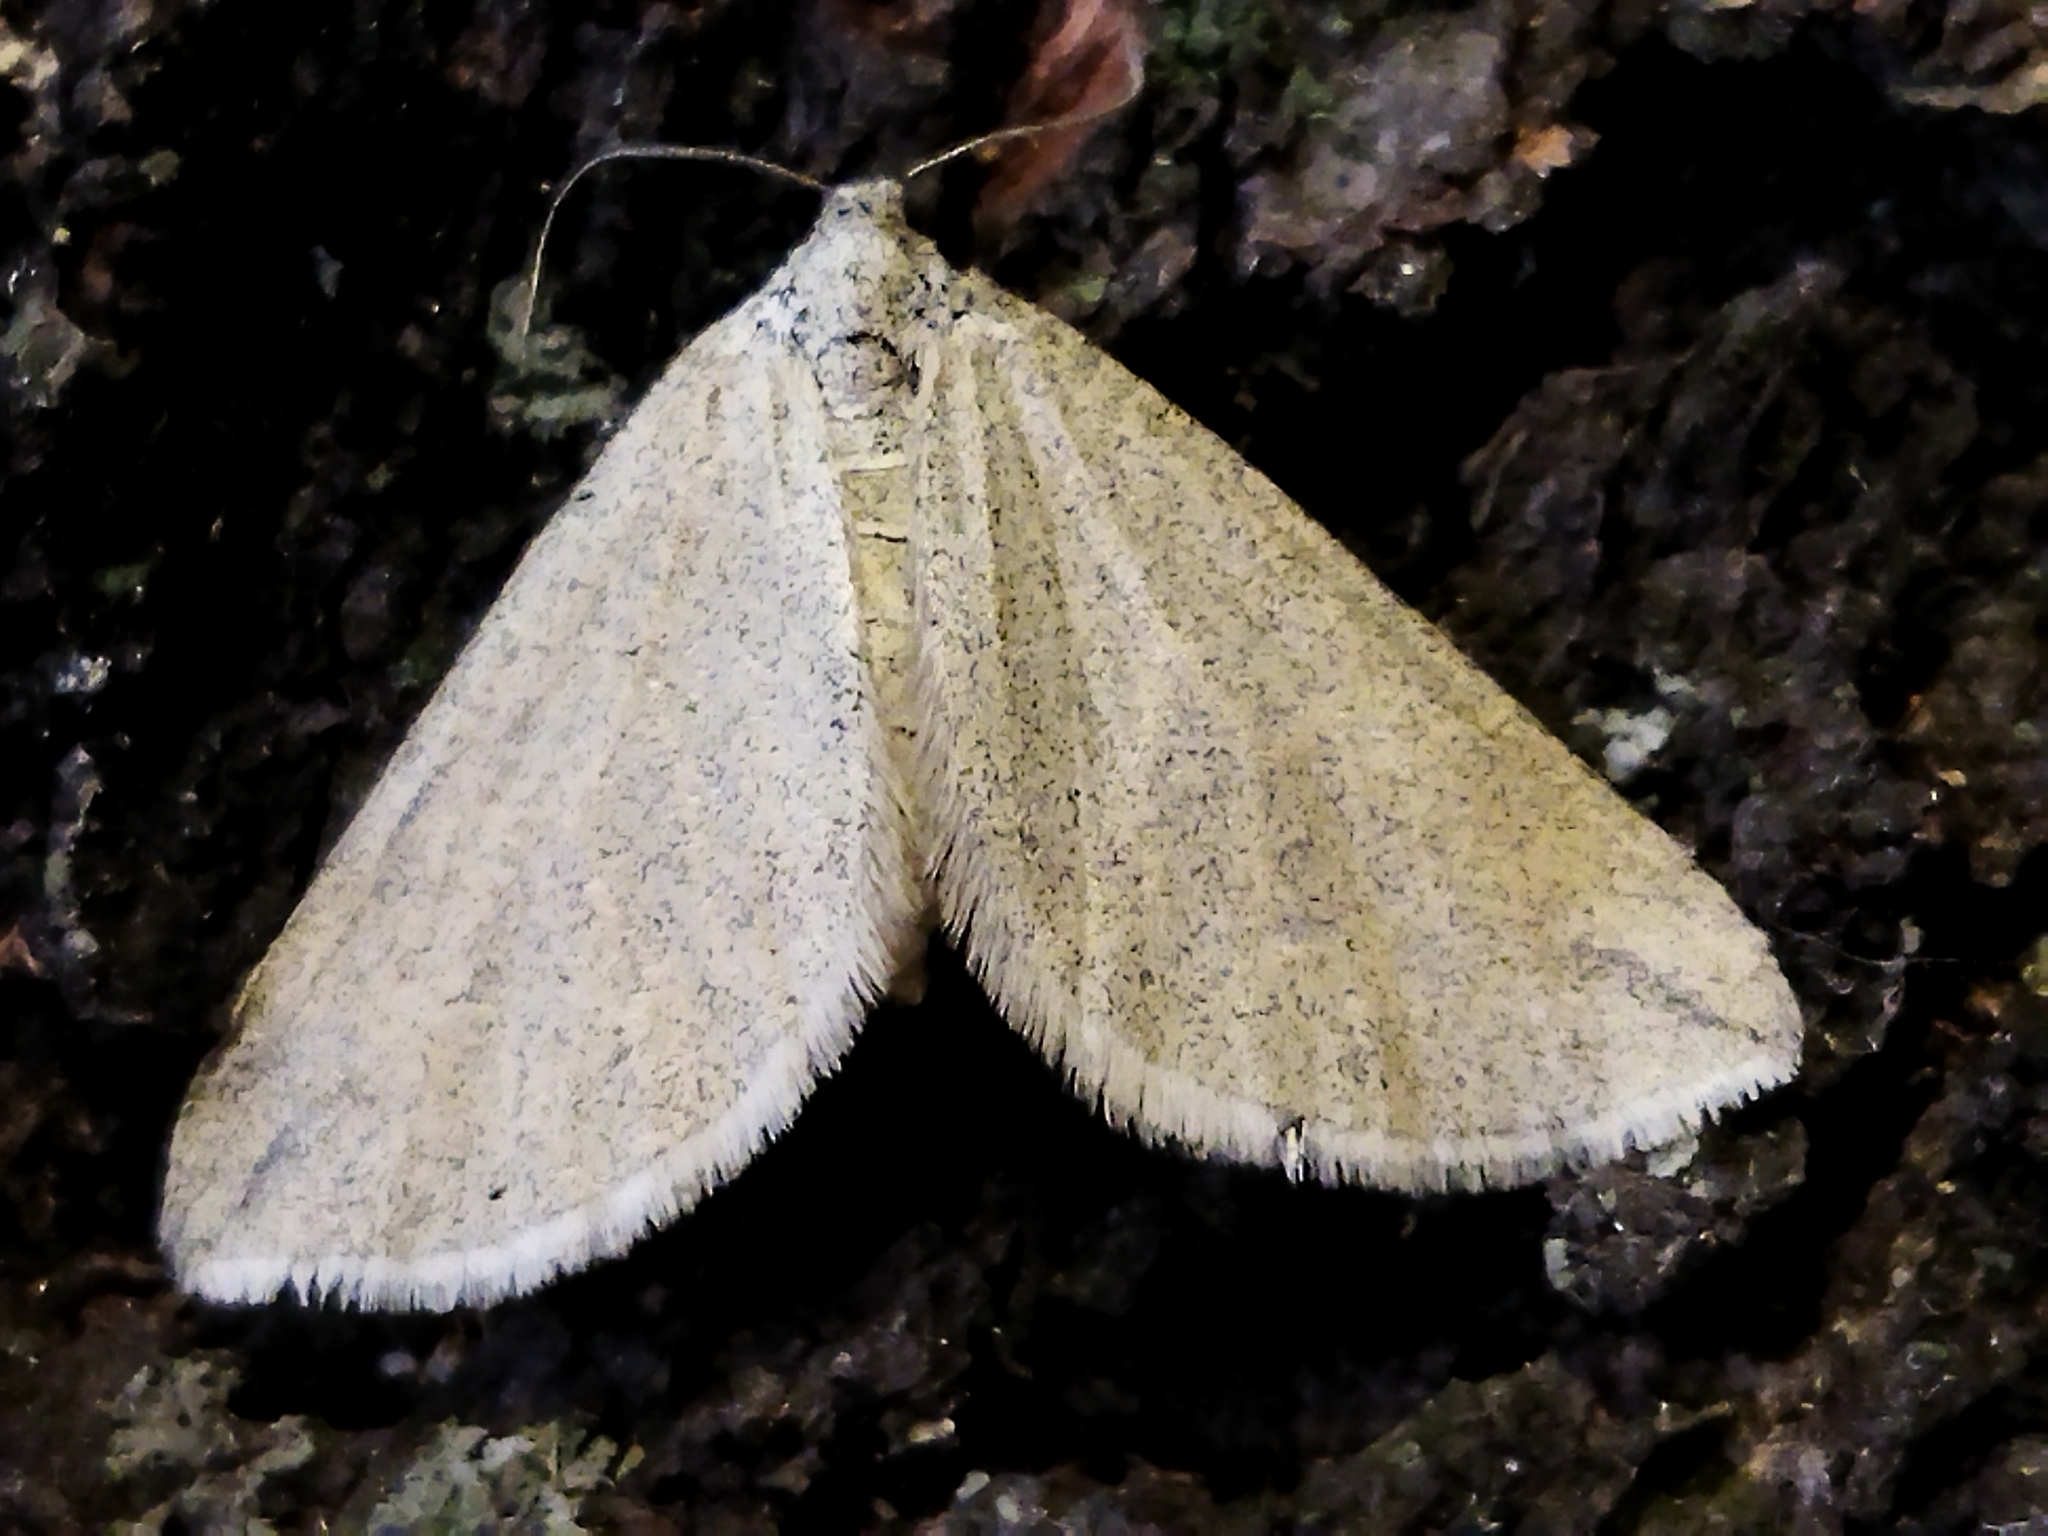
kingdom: Animalia
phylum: Arthropoda
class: Insecta
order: Lepidoptera
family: Geometridae
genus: Lithostege
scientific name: Lithostege griseata
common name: Grey carpet
